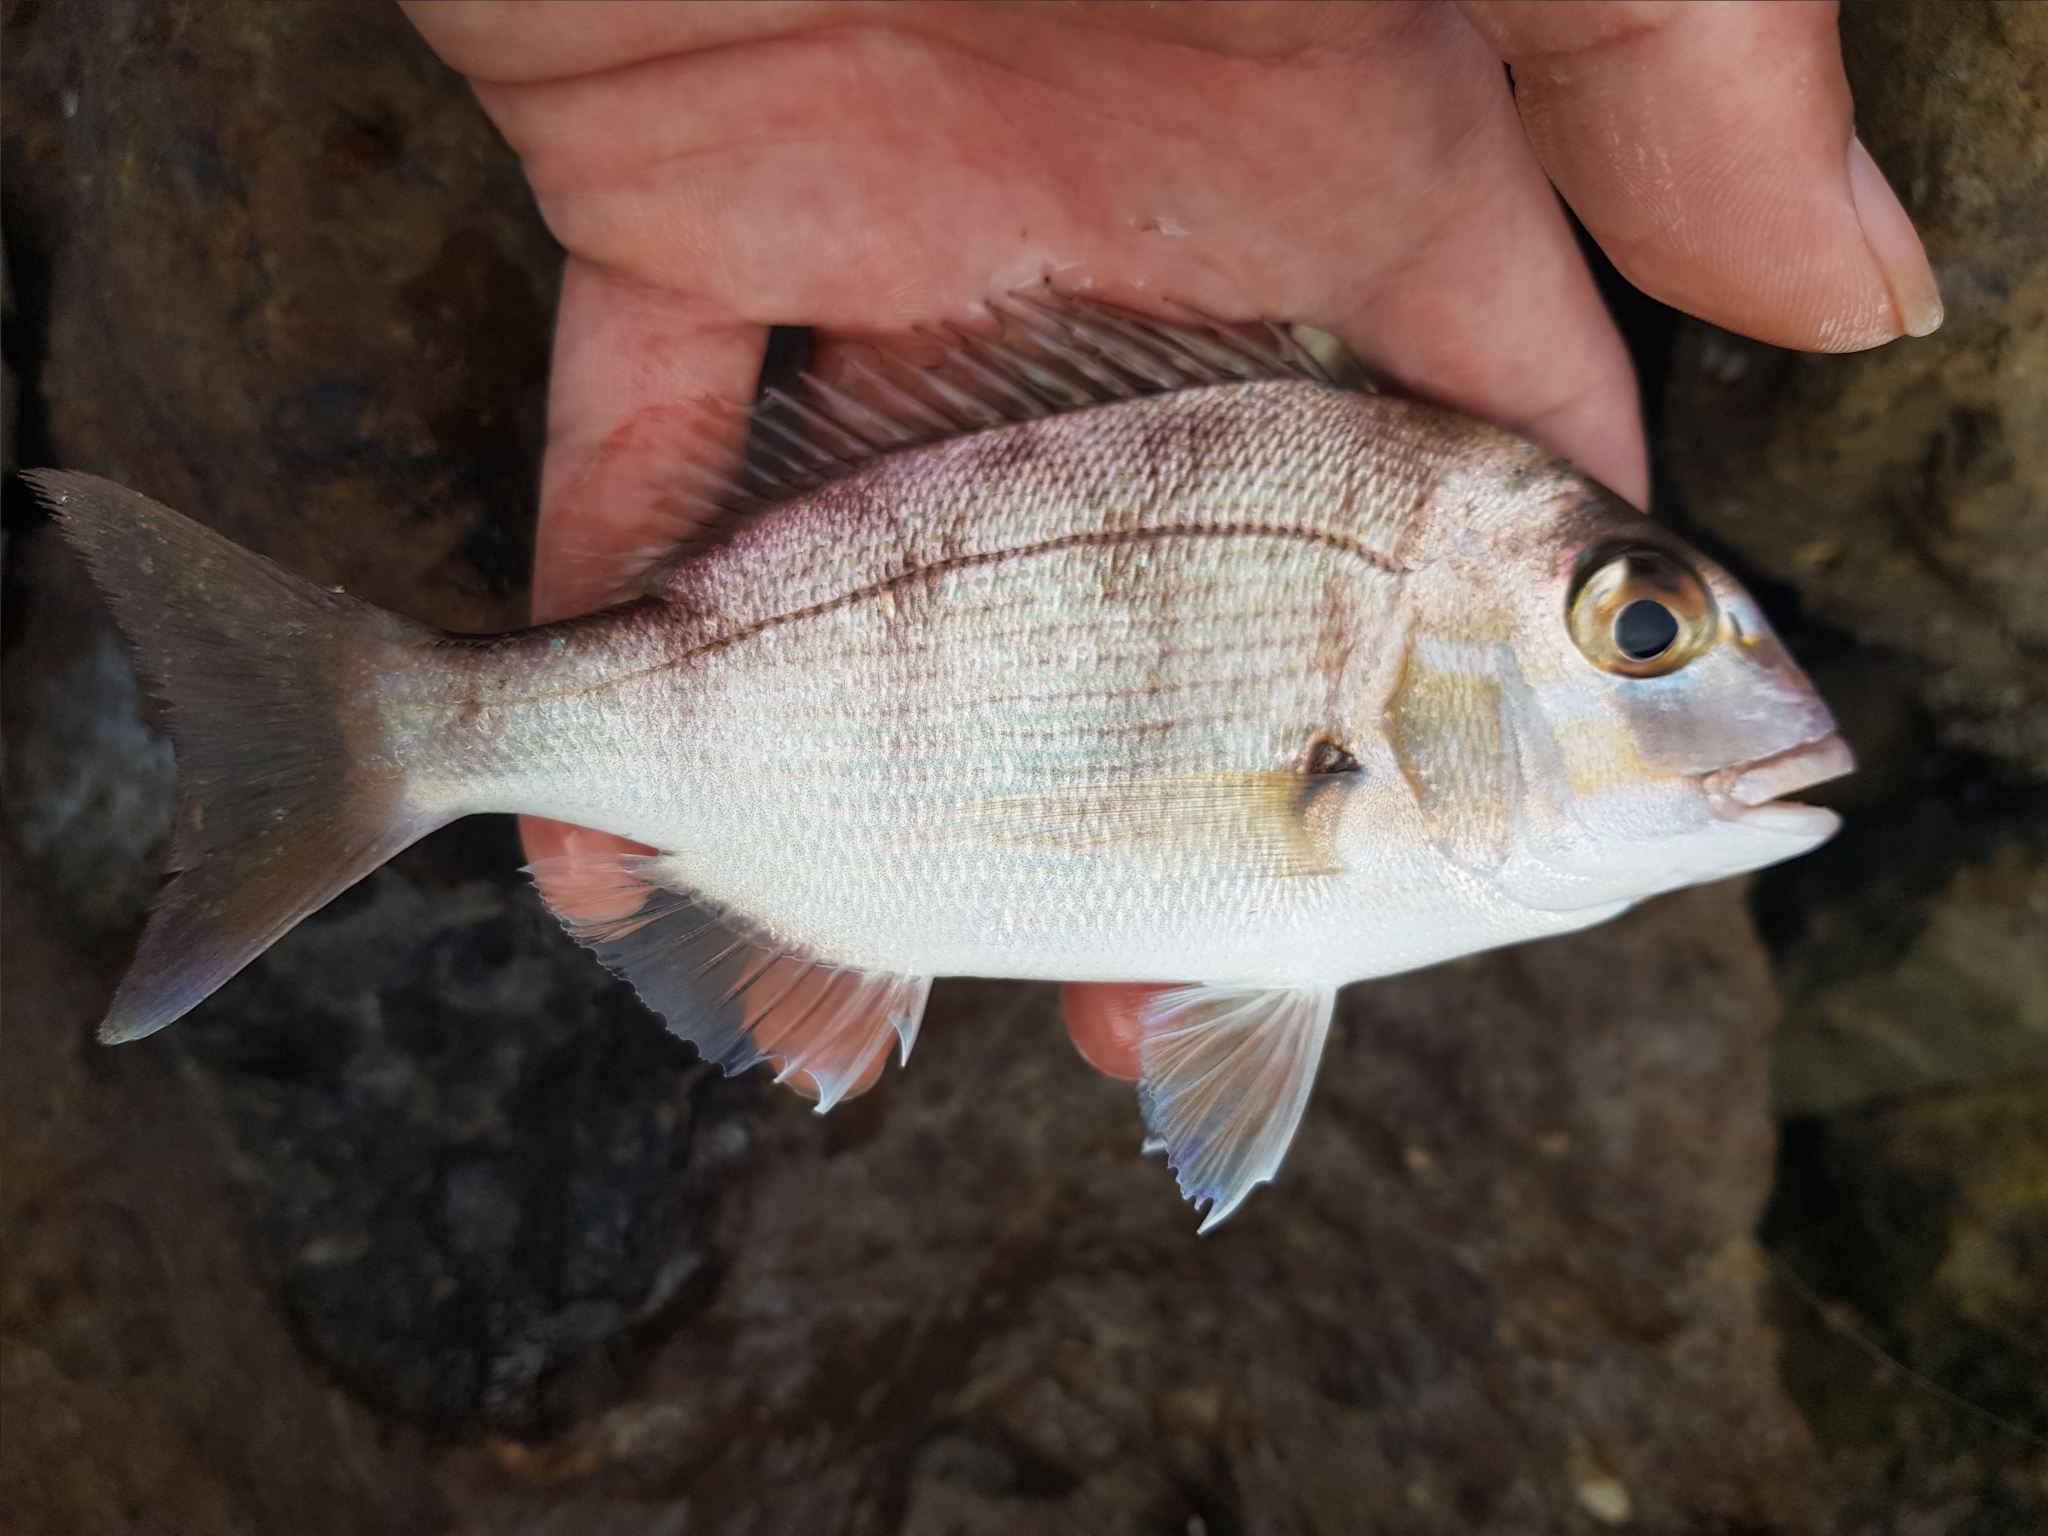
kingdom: Animalia
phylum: Chordata
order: Perciformes
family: Sparidae
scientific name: Sparidae
